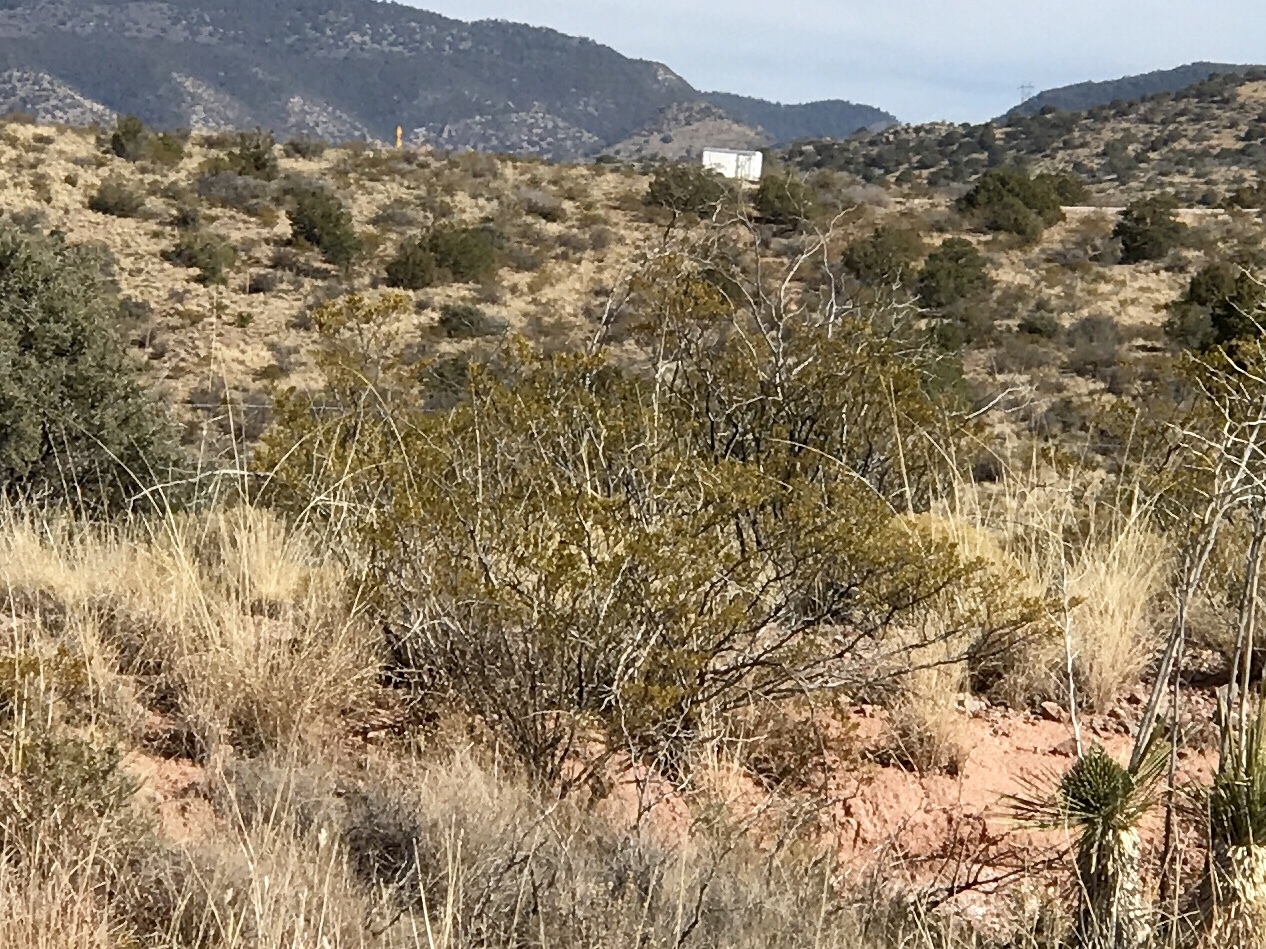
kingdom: Plantae
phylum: Tracheophyta
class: Magnoliopsida
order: Zygophyllales
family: Zygophyllaceae
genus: Larrea
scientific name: Larrea tridentata
